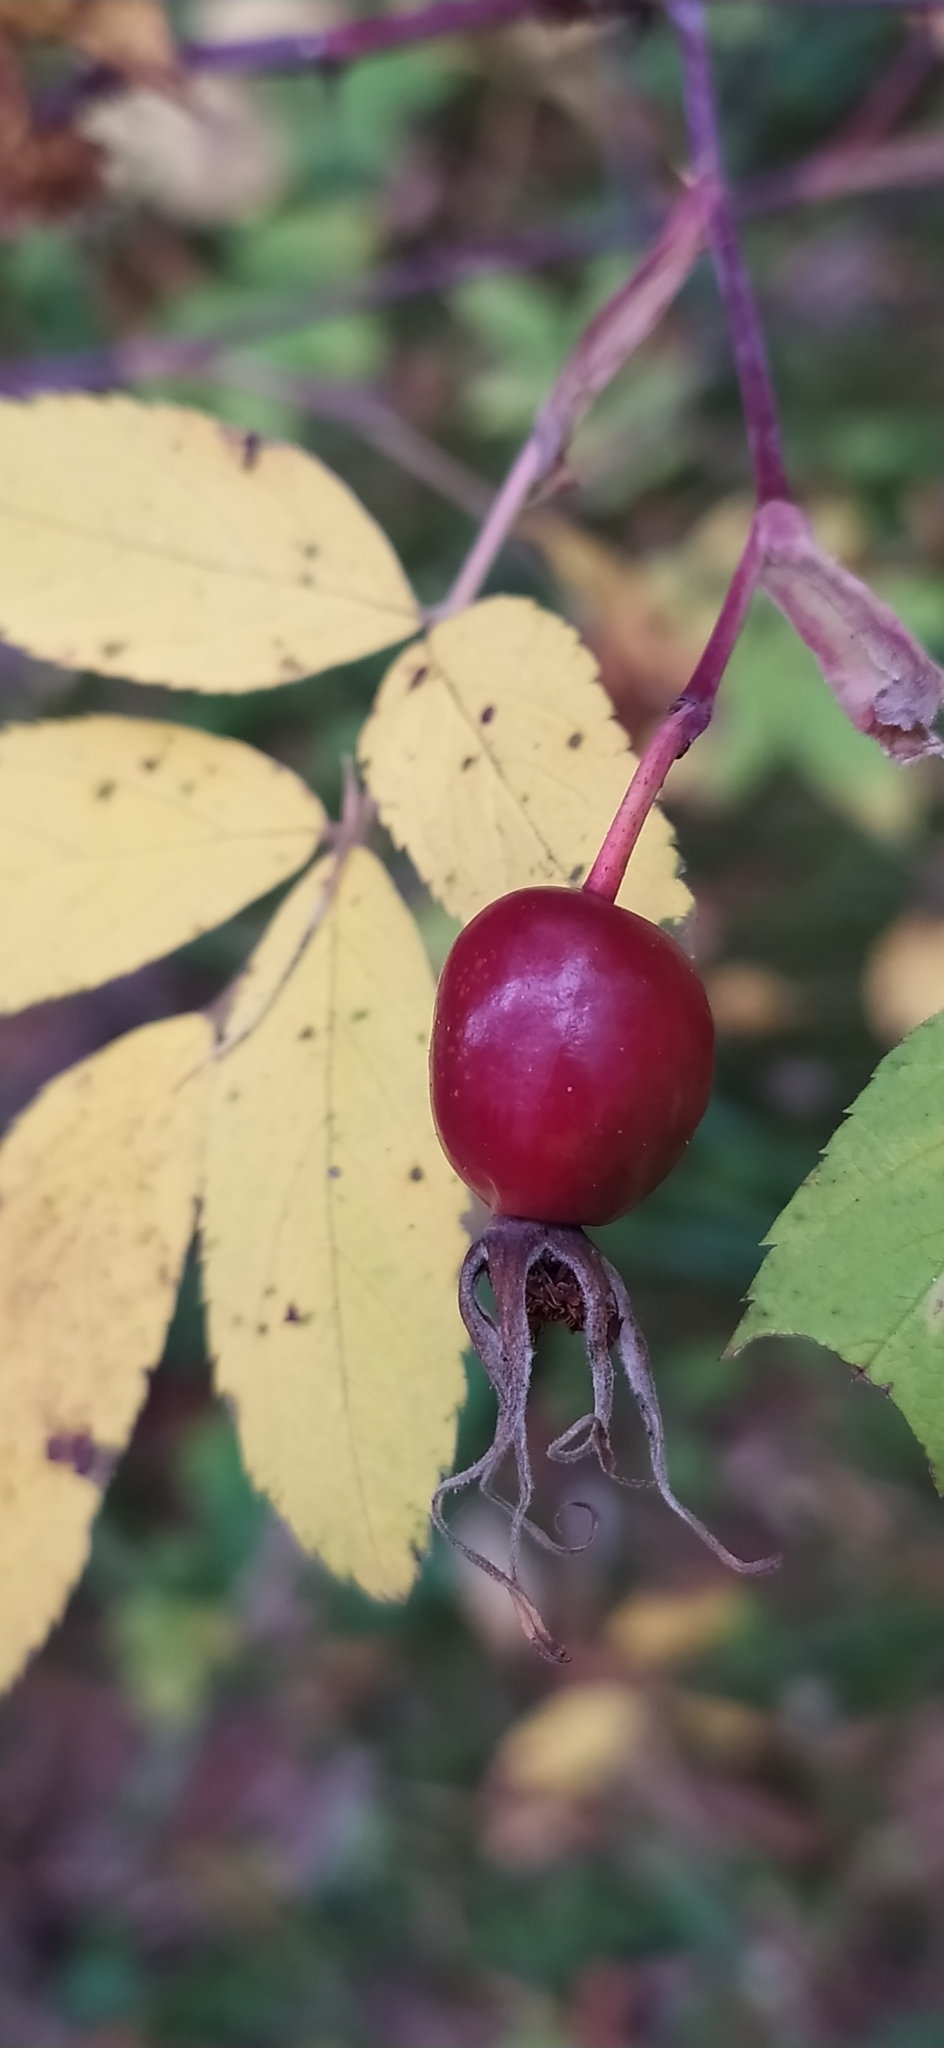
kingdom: Plantae
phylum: Tracheophyta
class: Magnoliopsida
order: Rosales
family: Rosaceae
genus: Rosa
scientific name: Rosa majalis
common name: Cinnamon rose
